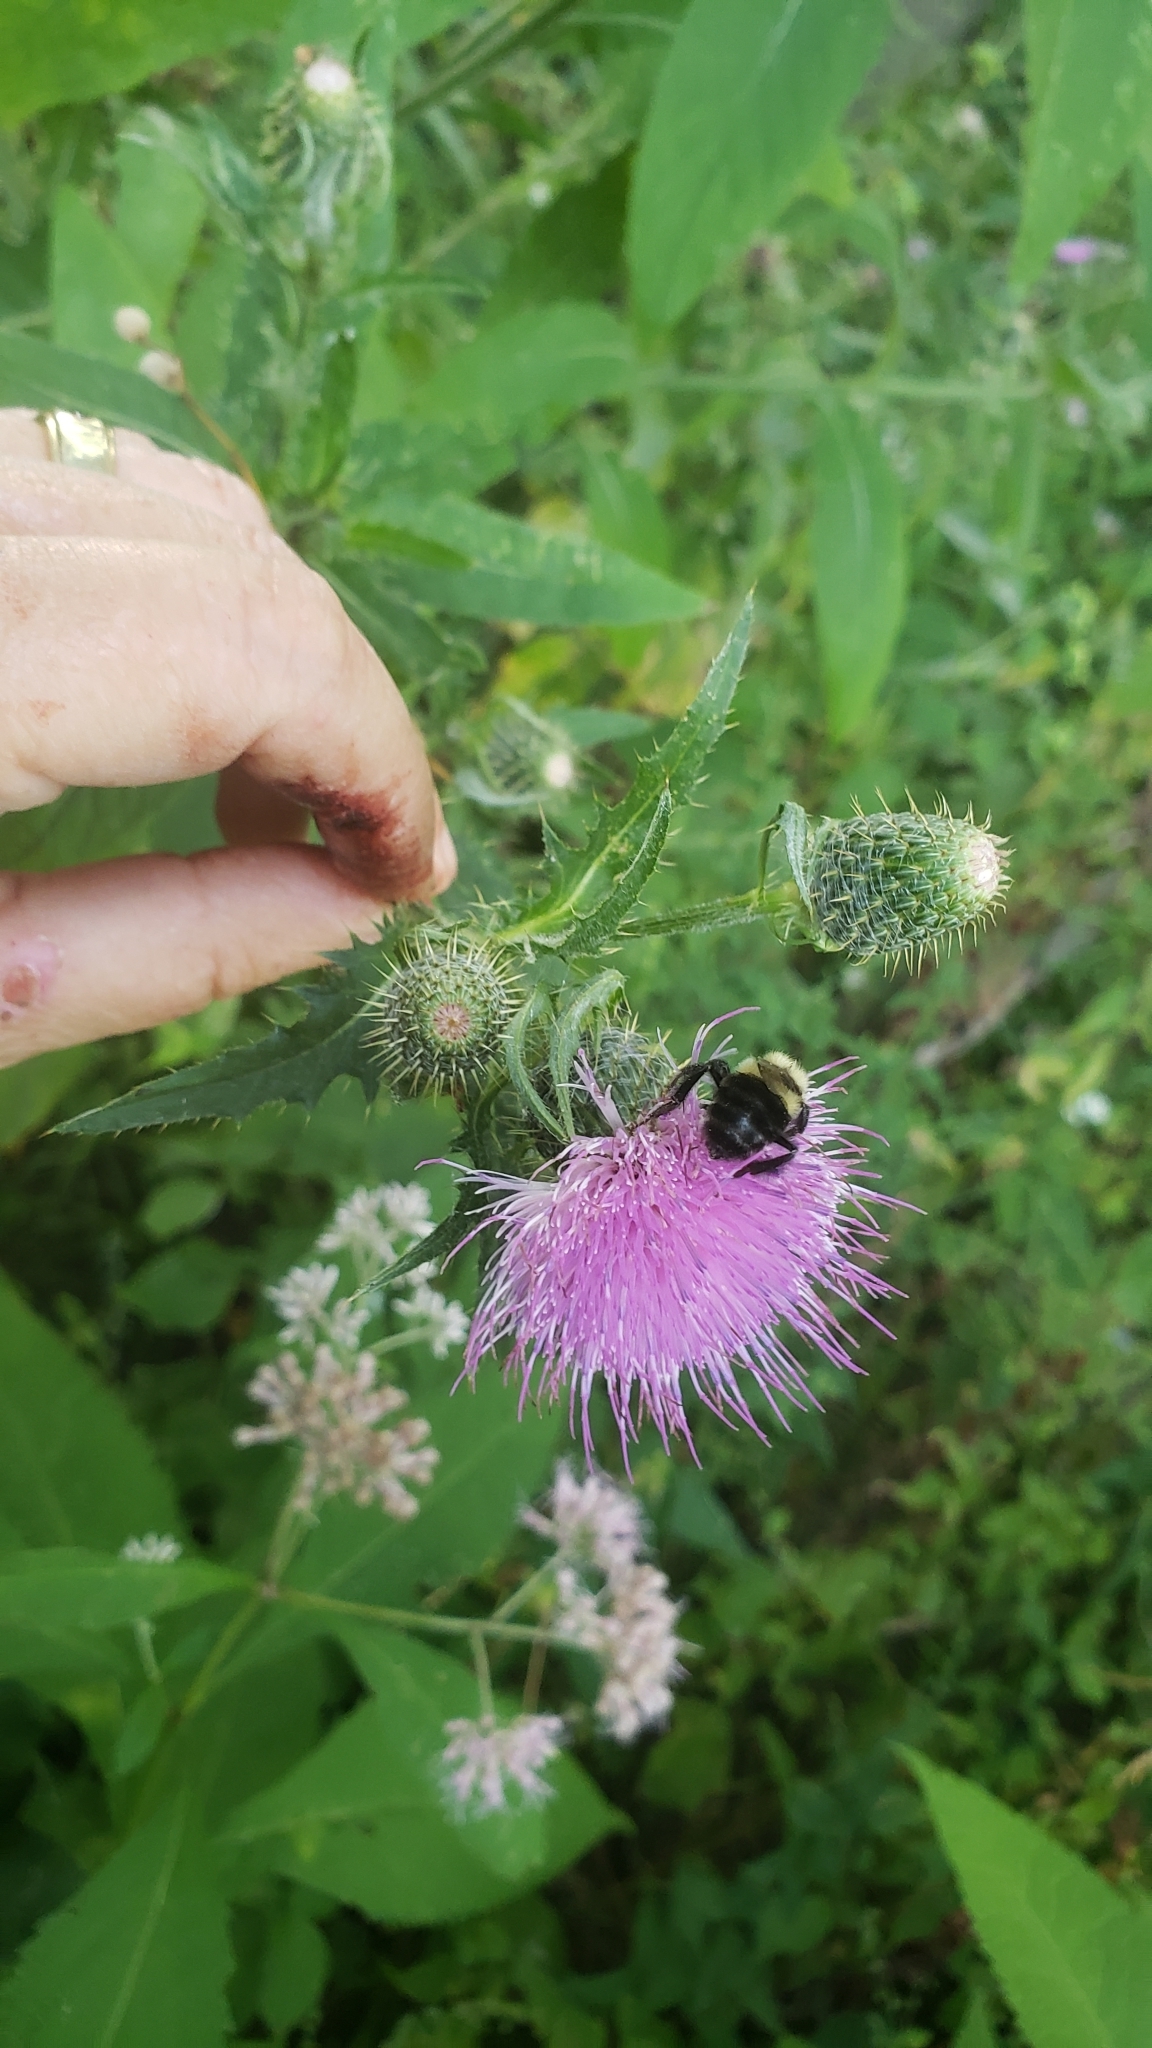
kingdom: Animalia
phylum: Arthropoda
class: Insecta
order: Hymenoptera
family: Apidae
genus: Bombus
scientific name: Bombus impatiens
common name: Common eastern bumble bee
